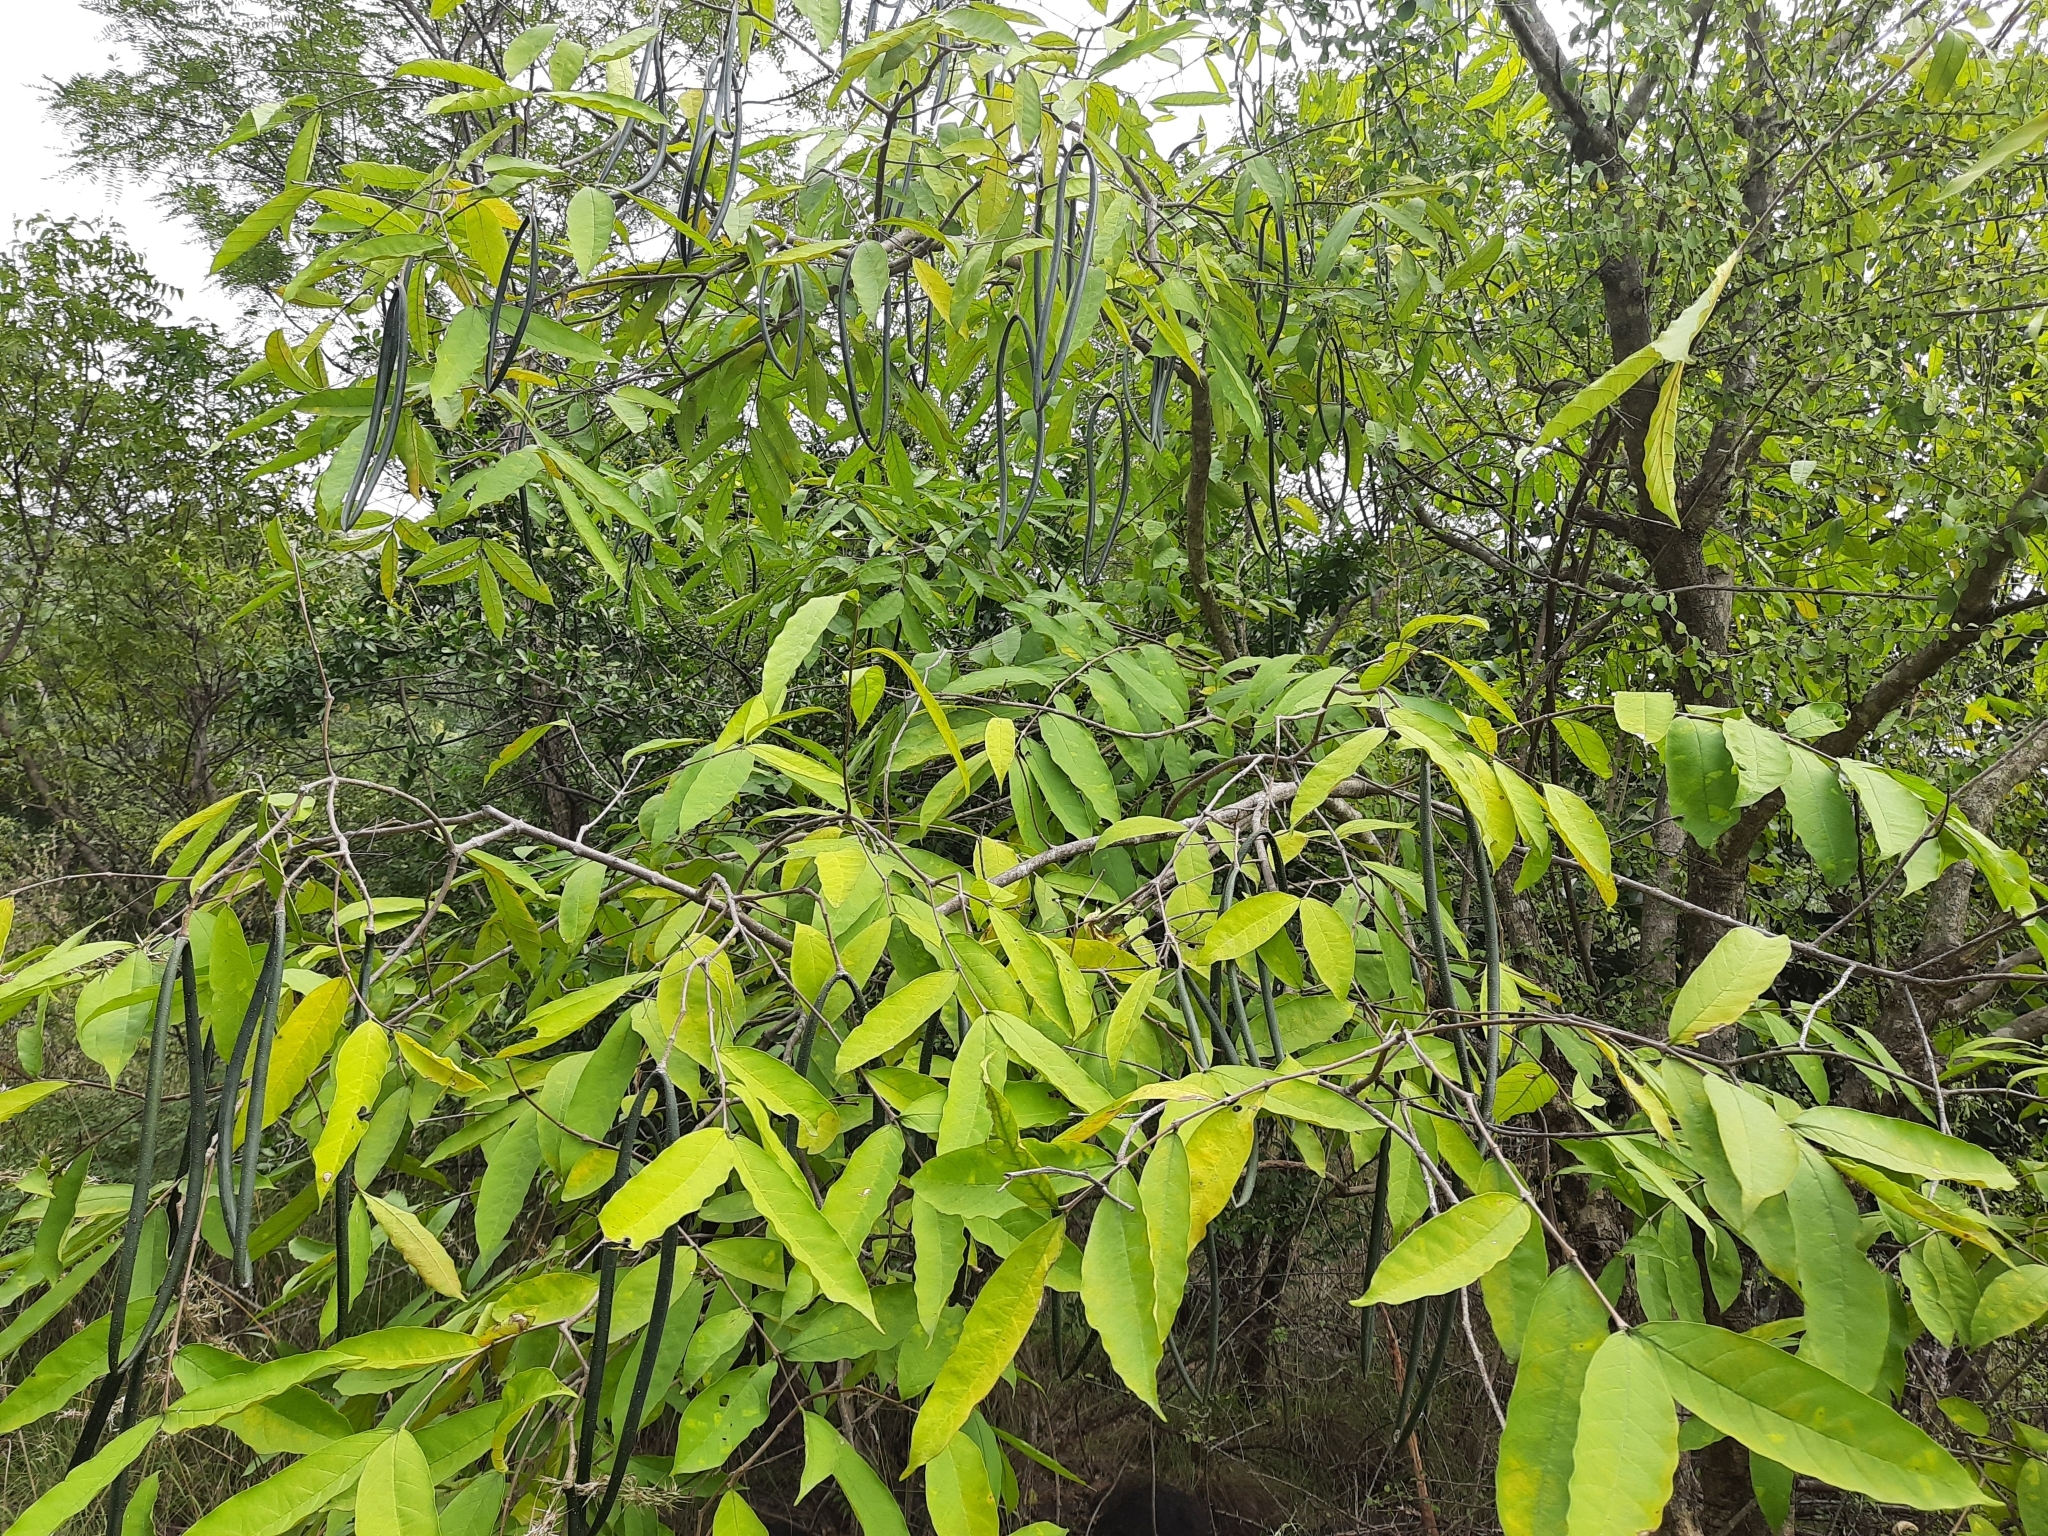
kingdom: Plantae
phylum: Tracheophyta
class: Magnoliopsida
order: Gentianales
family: Apocynaceae
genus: Wrightia
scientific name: Wrightia tinctoria
